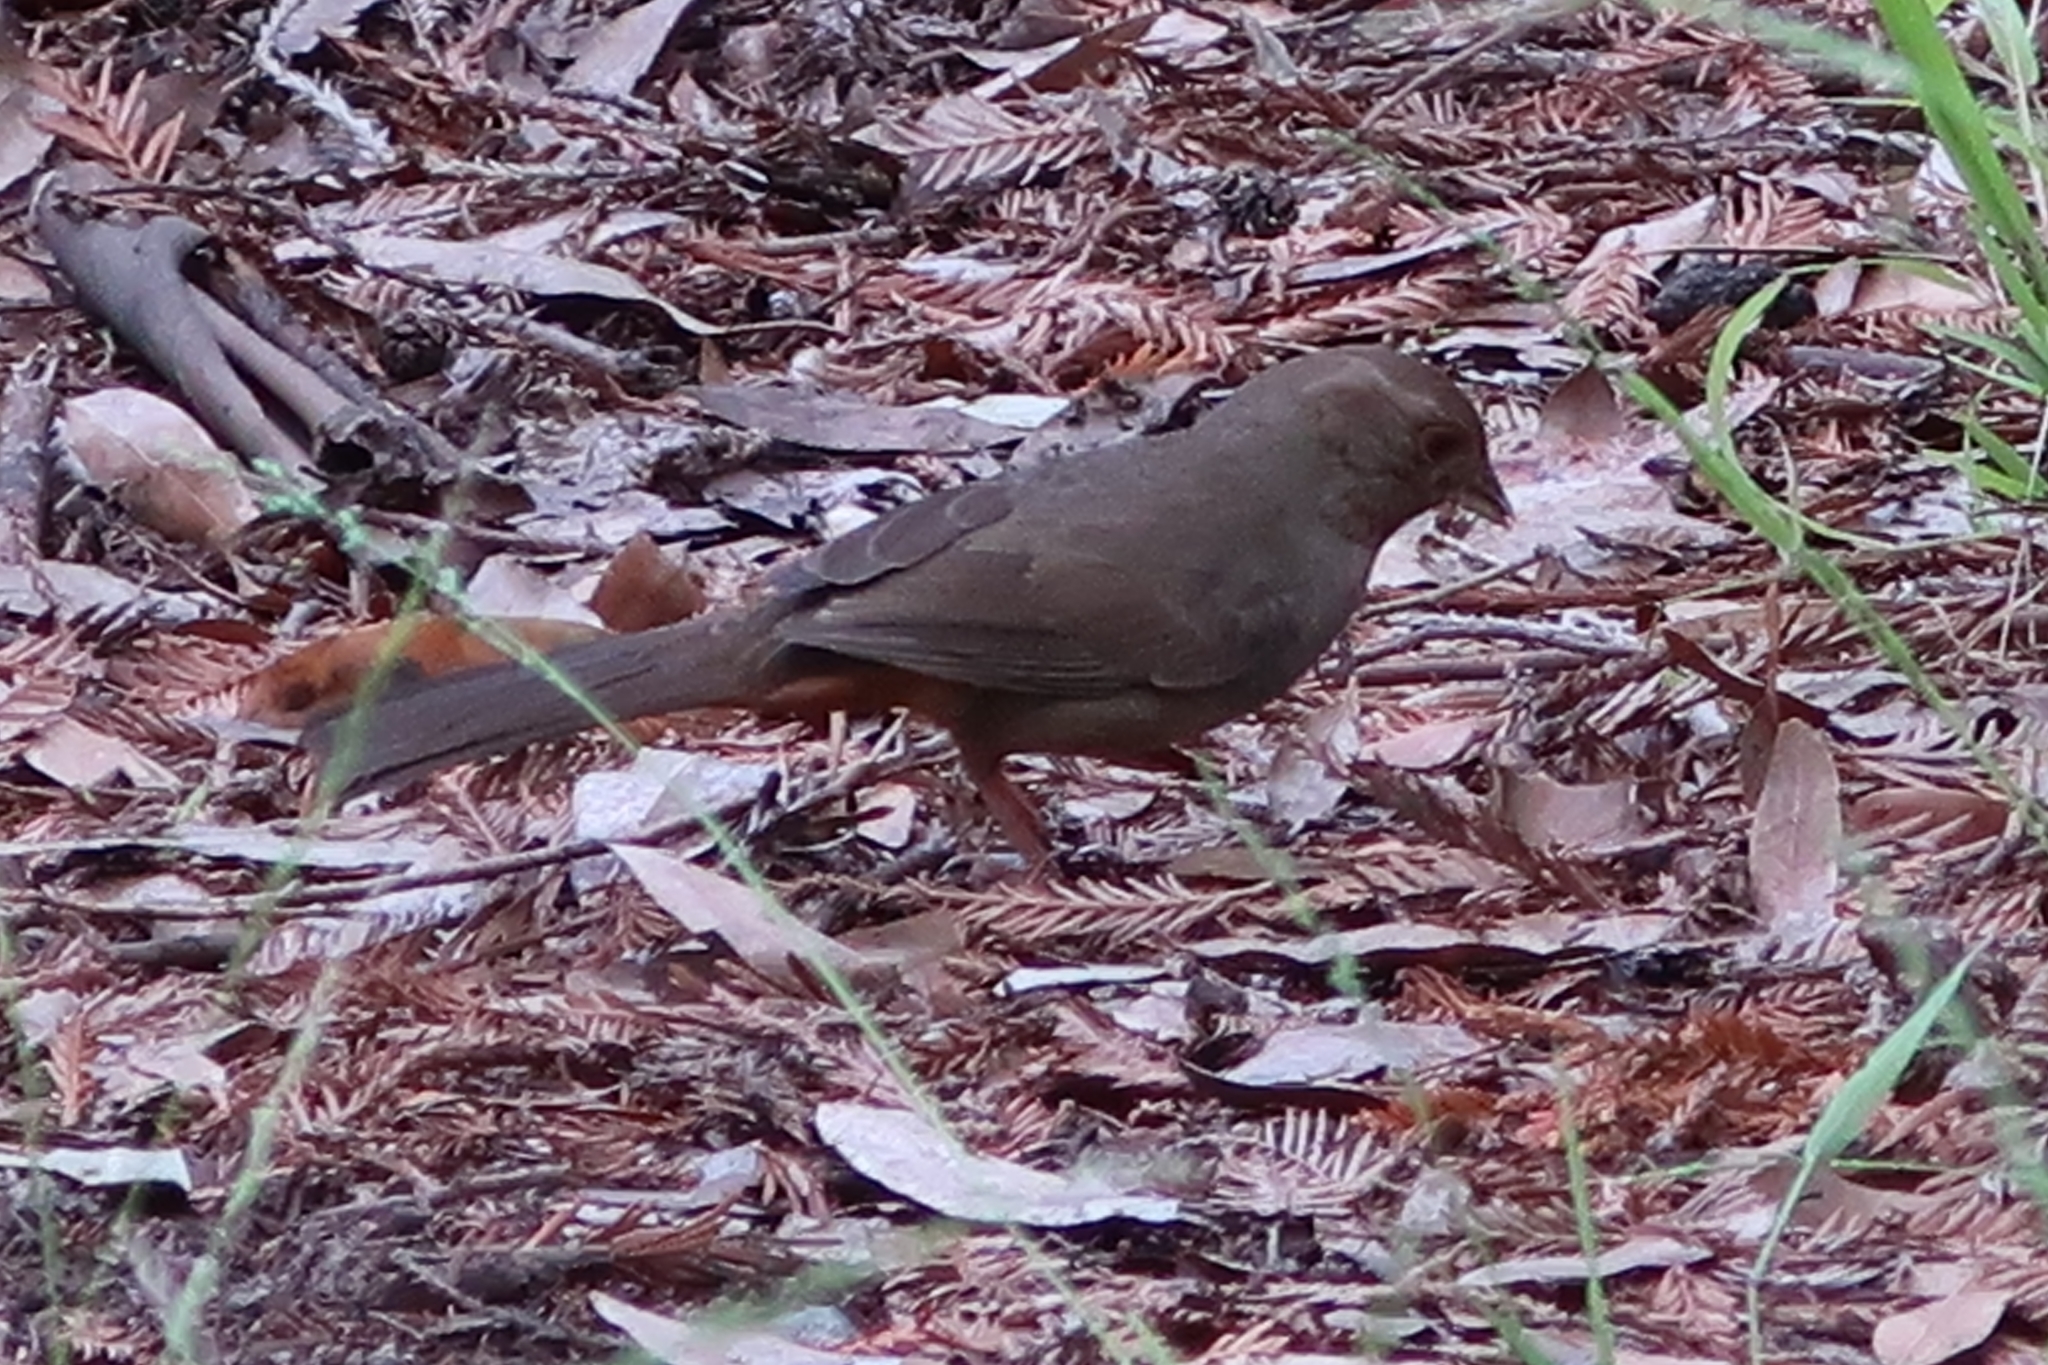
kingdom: Animalia
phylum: Chordata
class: Aves
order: Passeriformes
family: Passerellidae
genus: Melozone
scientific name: Melozone crissalis
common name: California towhee
